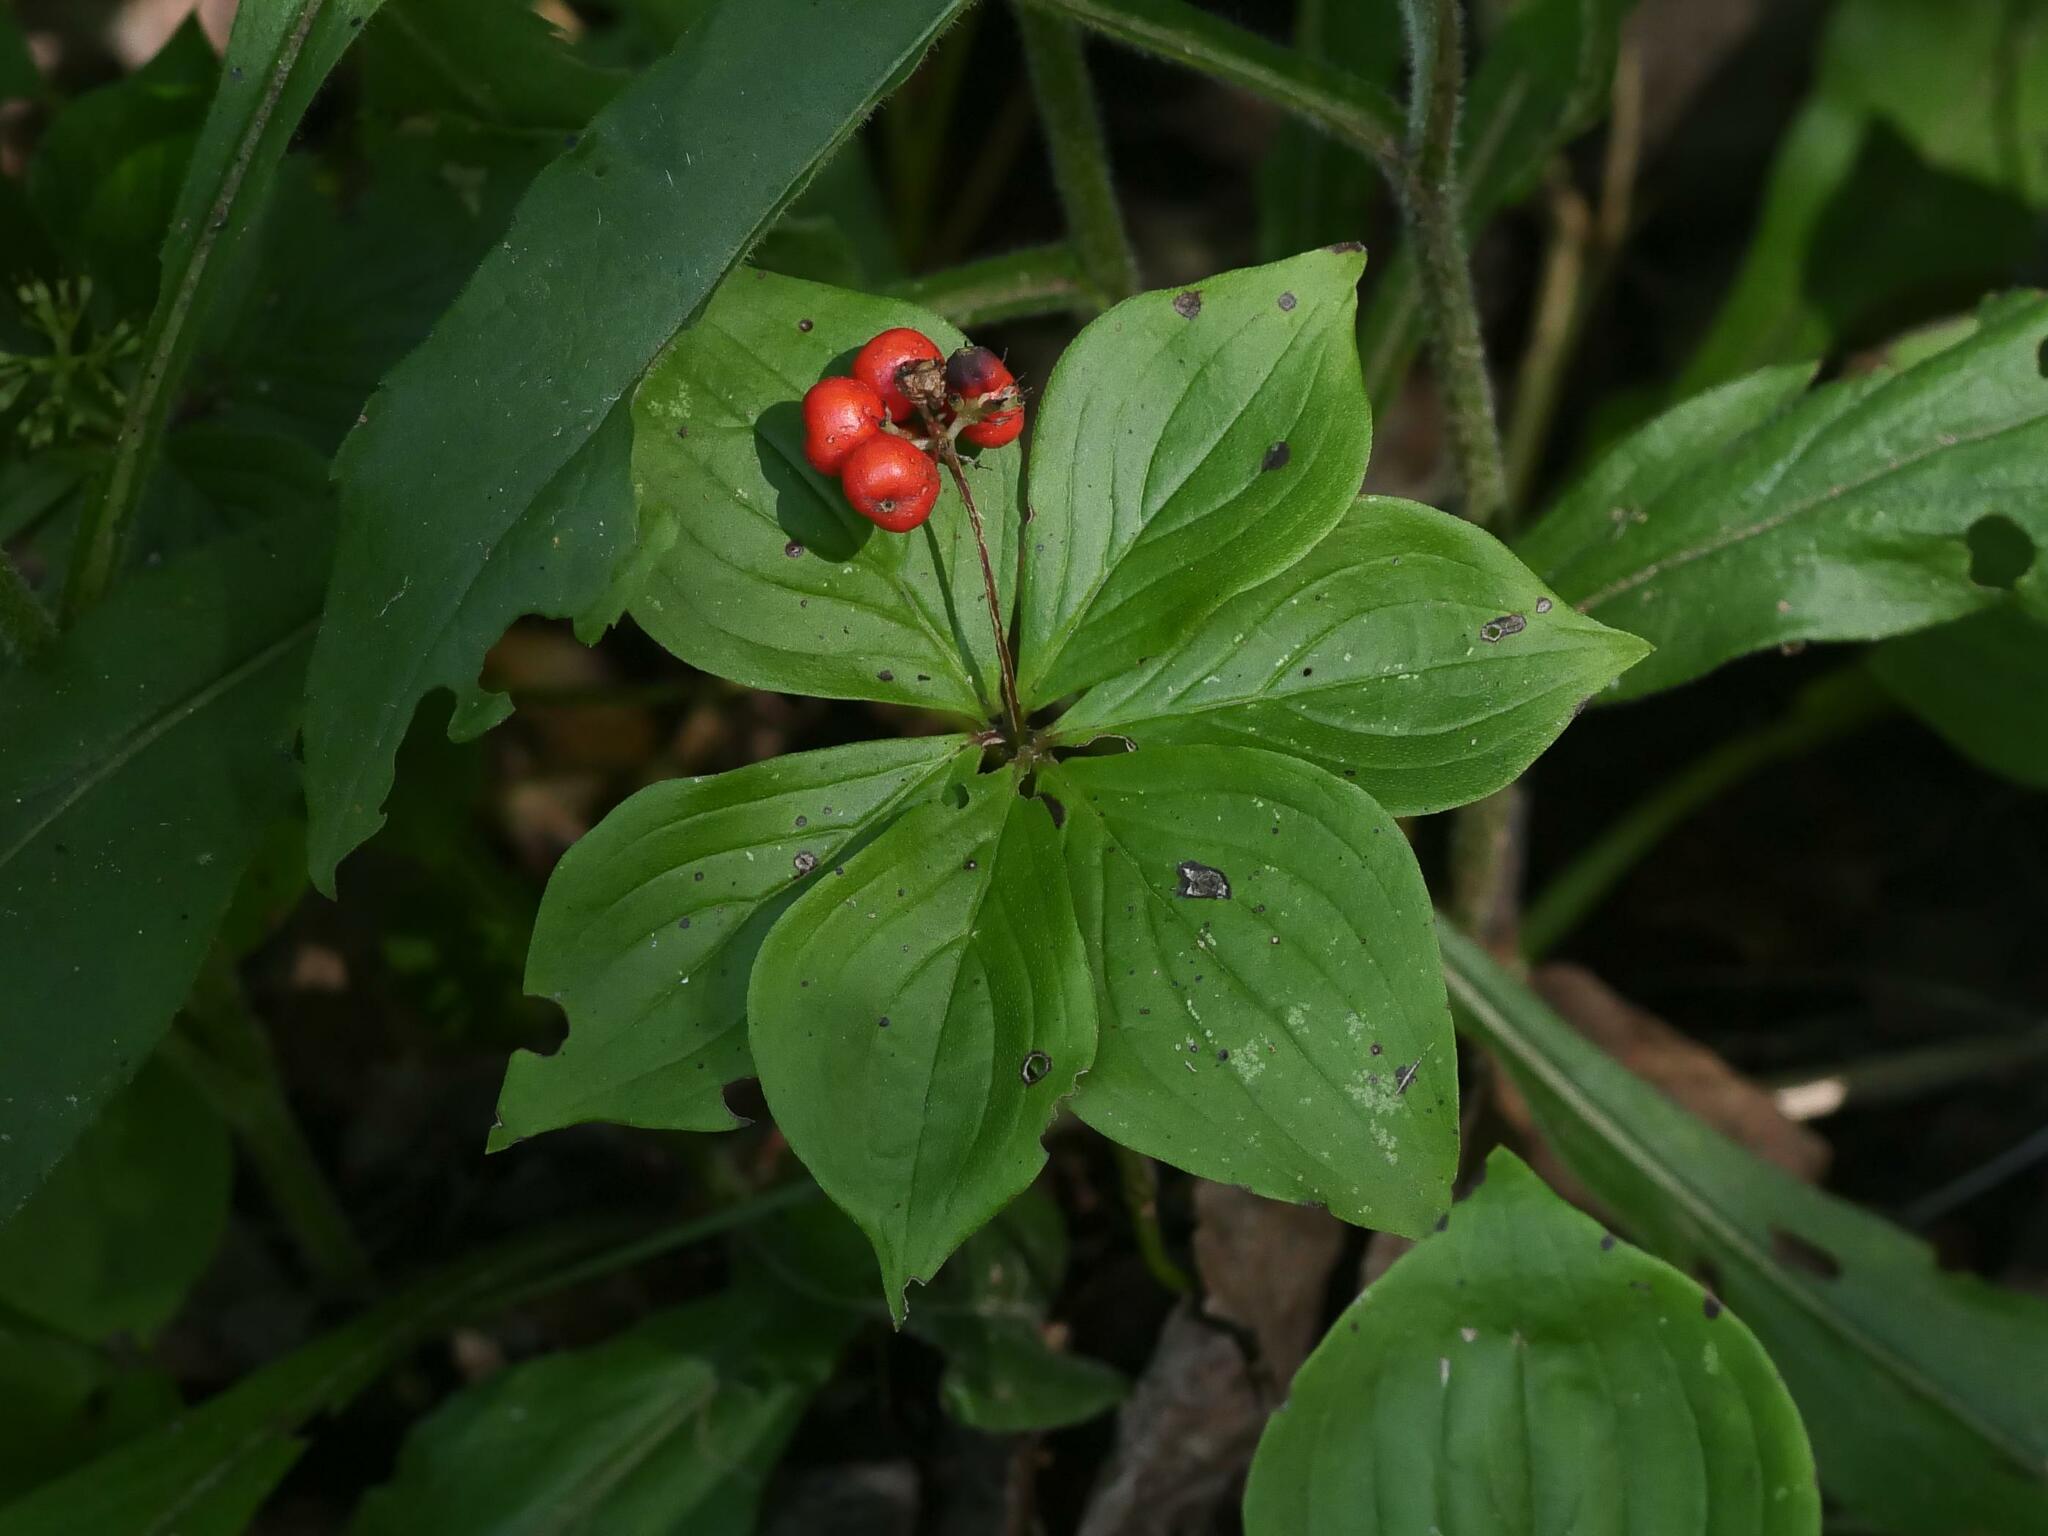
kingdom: Plantae
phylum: Tracheophyta
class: Magnoliopsida
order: Cornales
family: Cornaceae
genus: Cornus
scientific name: Cornus canadensis
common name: Creeping dogwood
